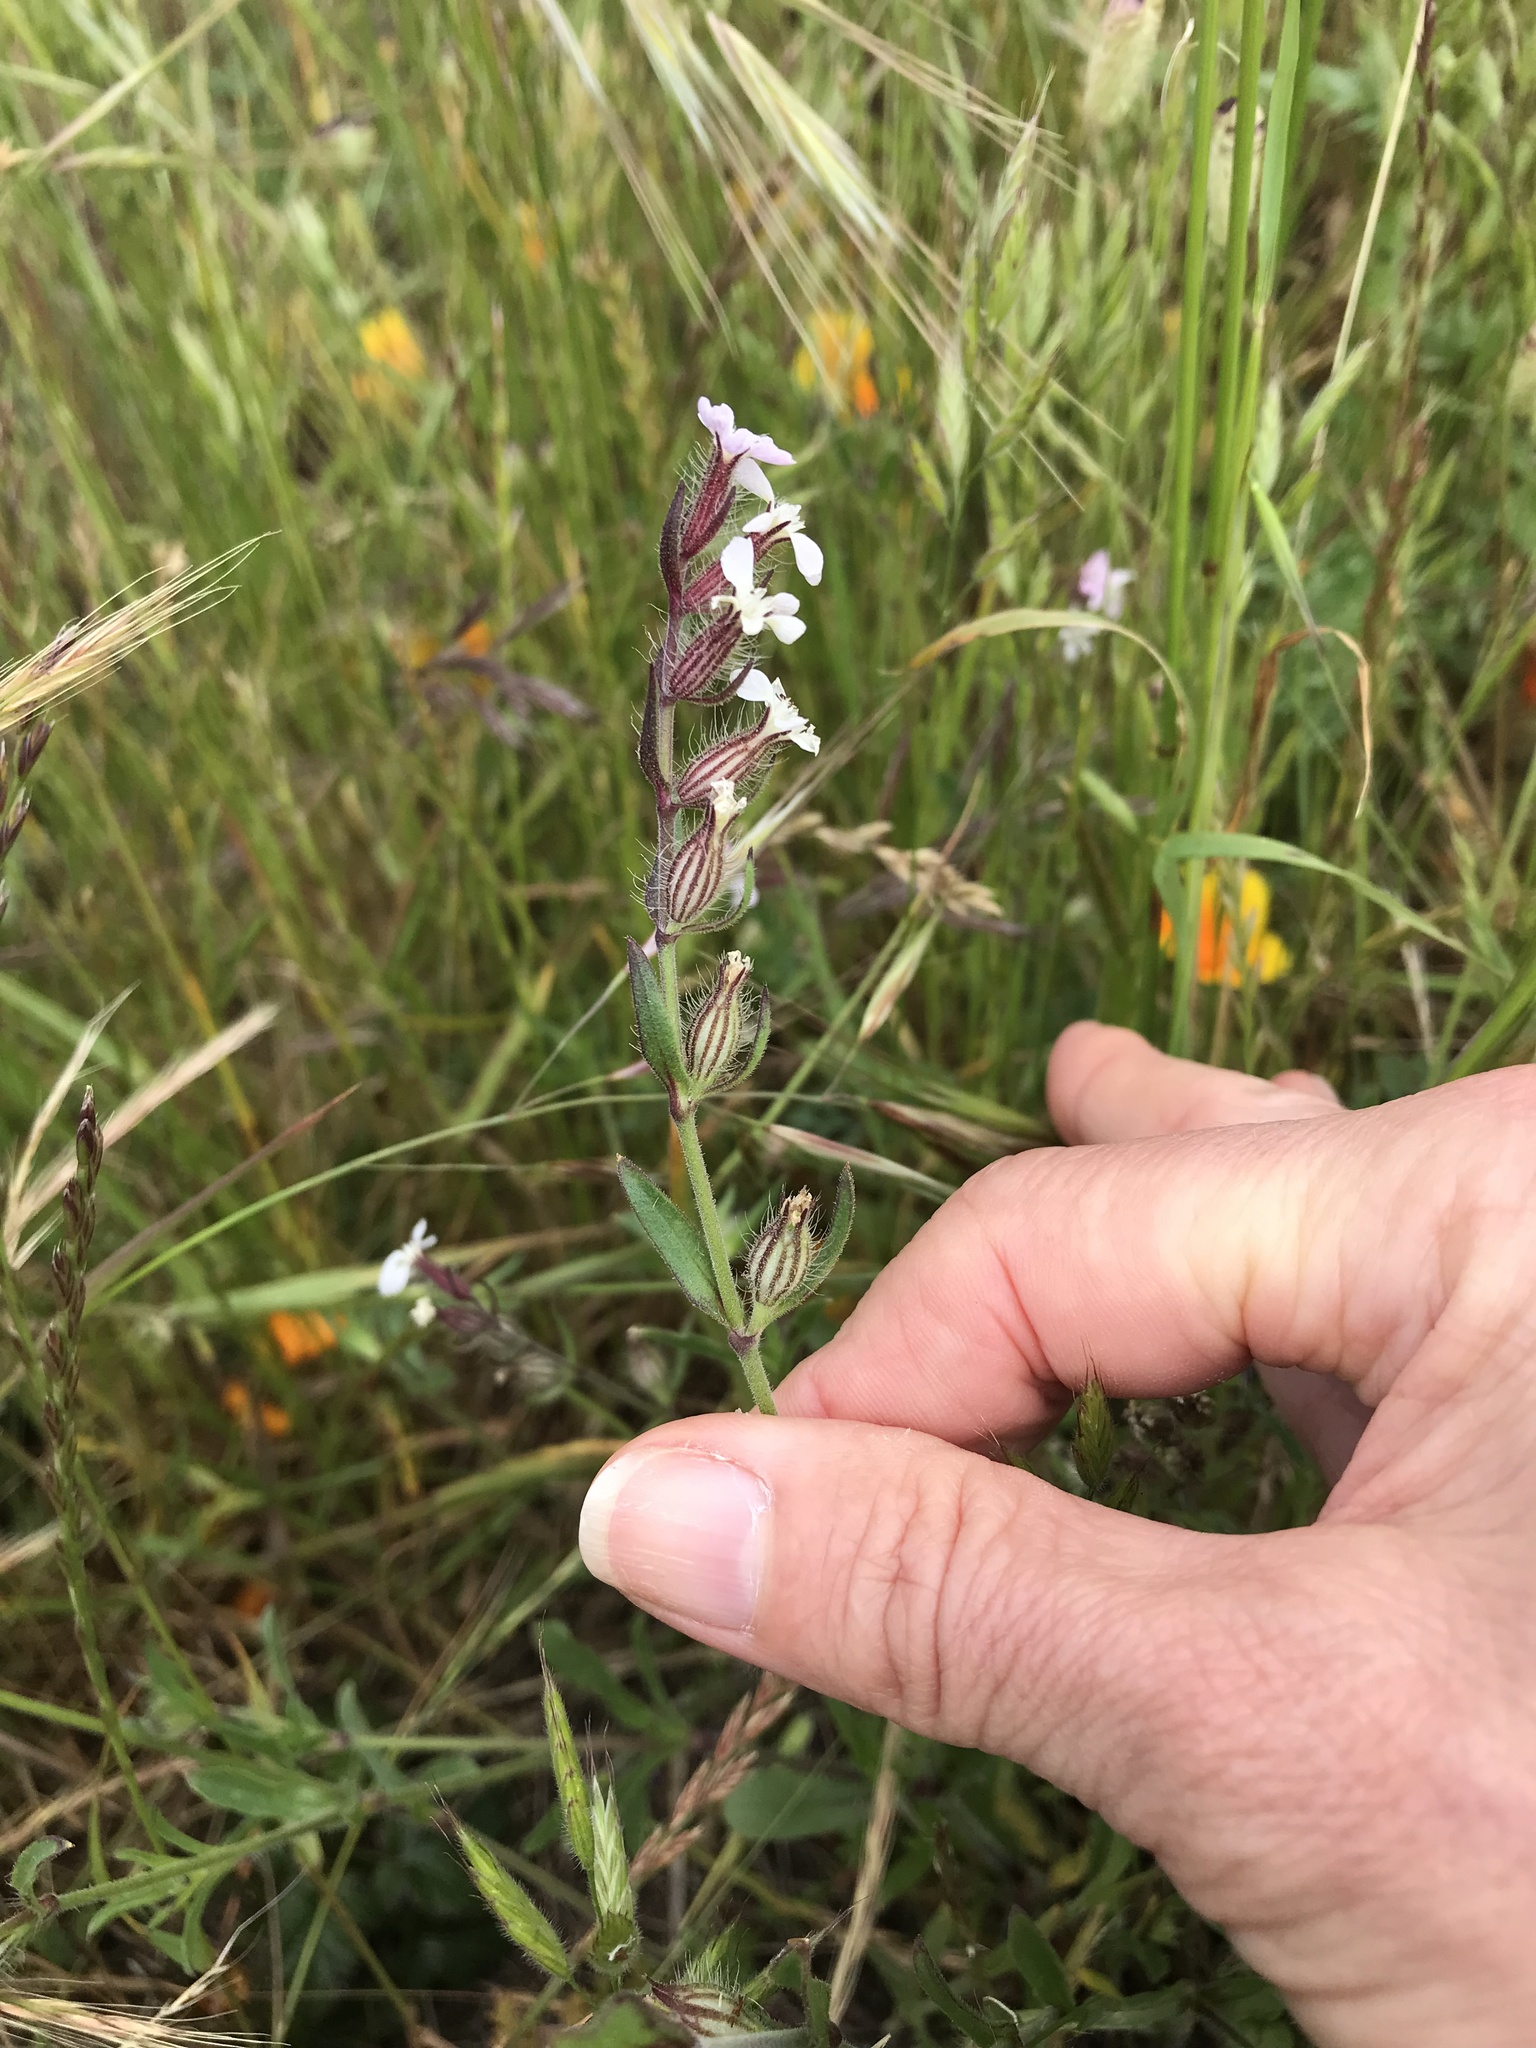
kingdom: Plantae
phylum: Tracheophyta
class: Magnoliopsida
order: Caryophyllales
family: Caryophyllaceae
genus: Silene
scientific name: Silene gallica
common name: Small-flowered catchfly
